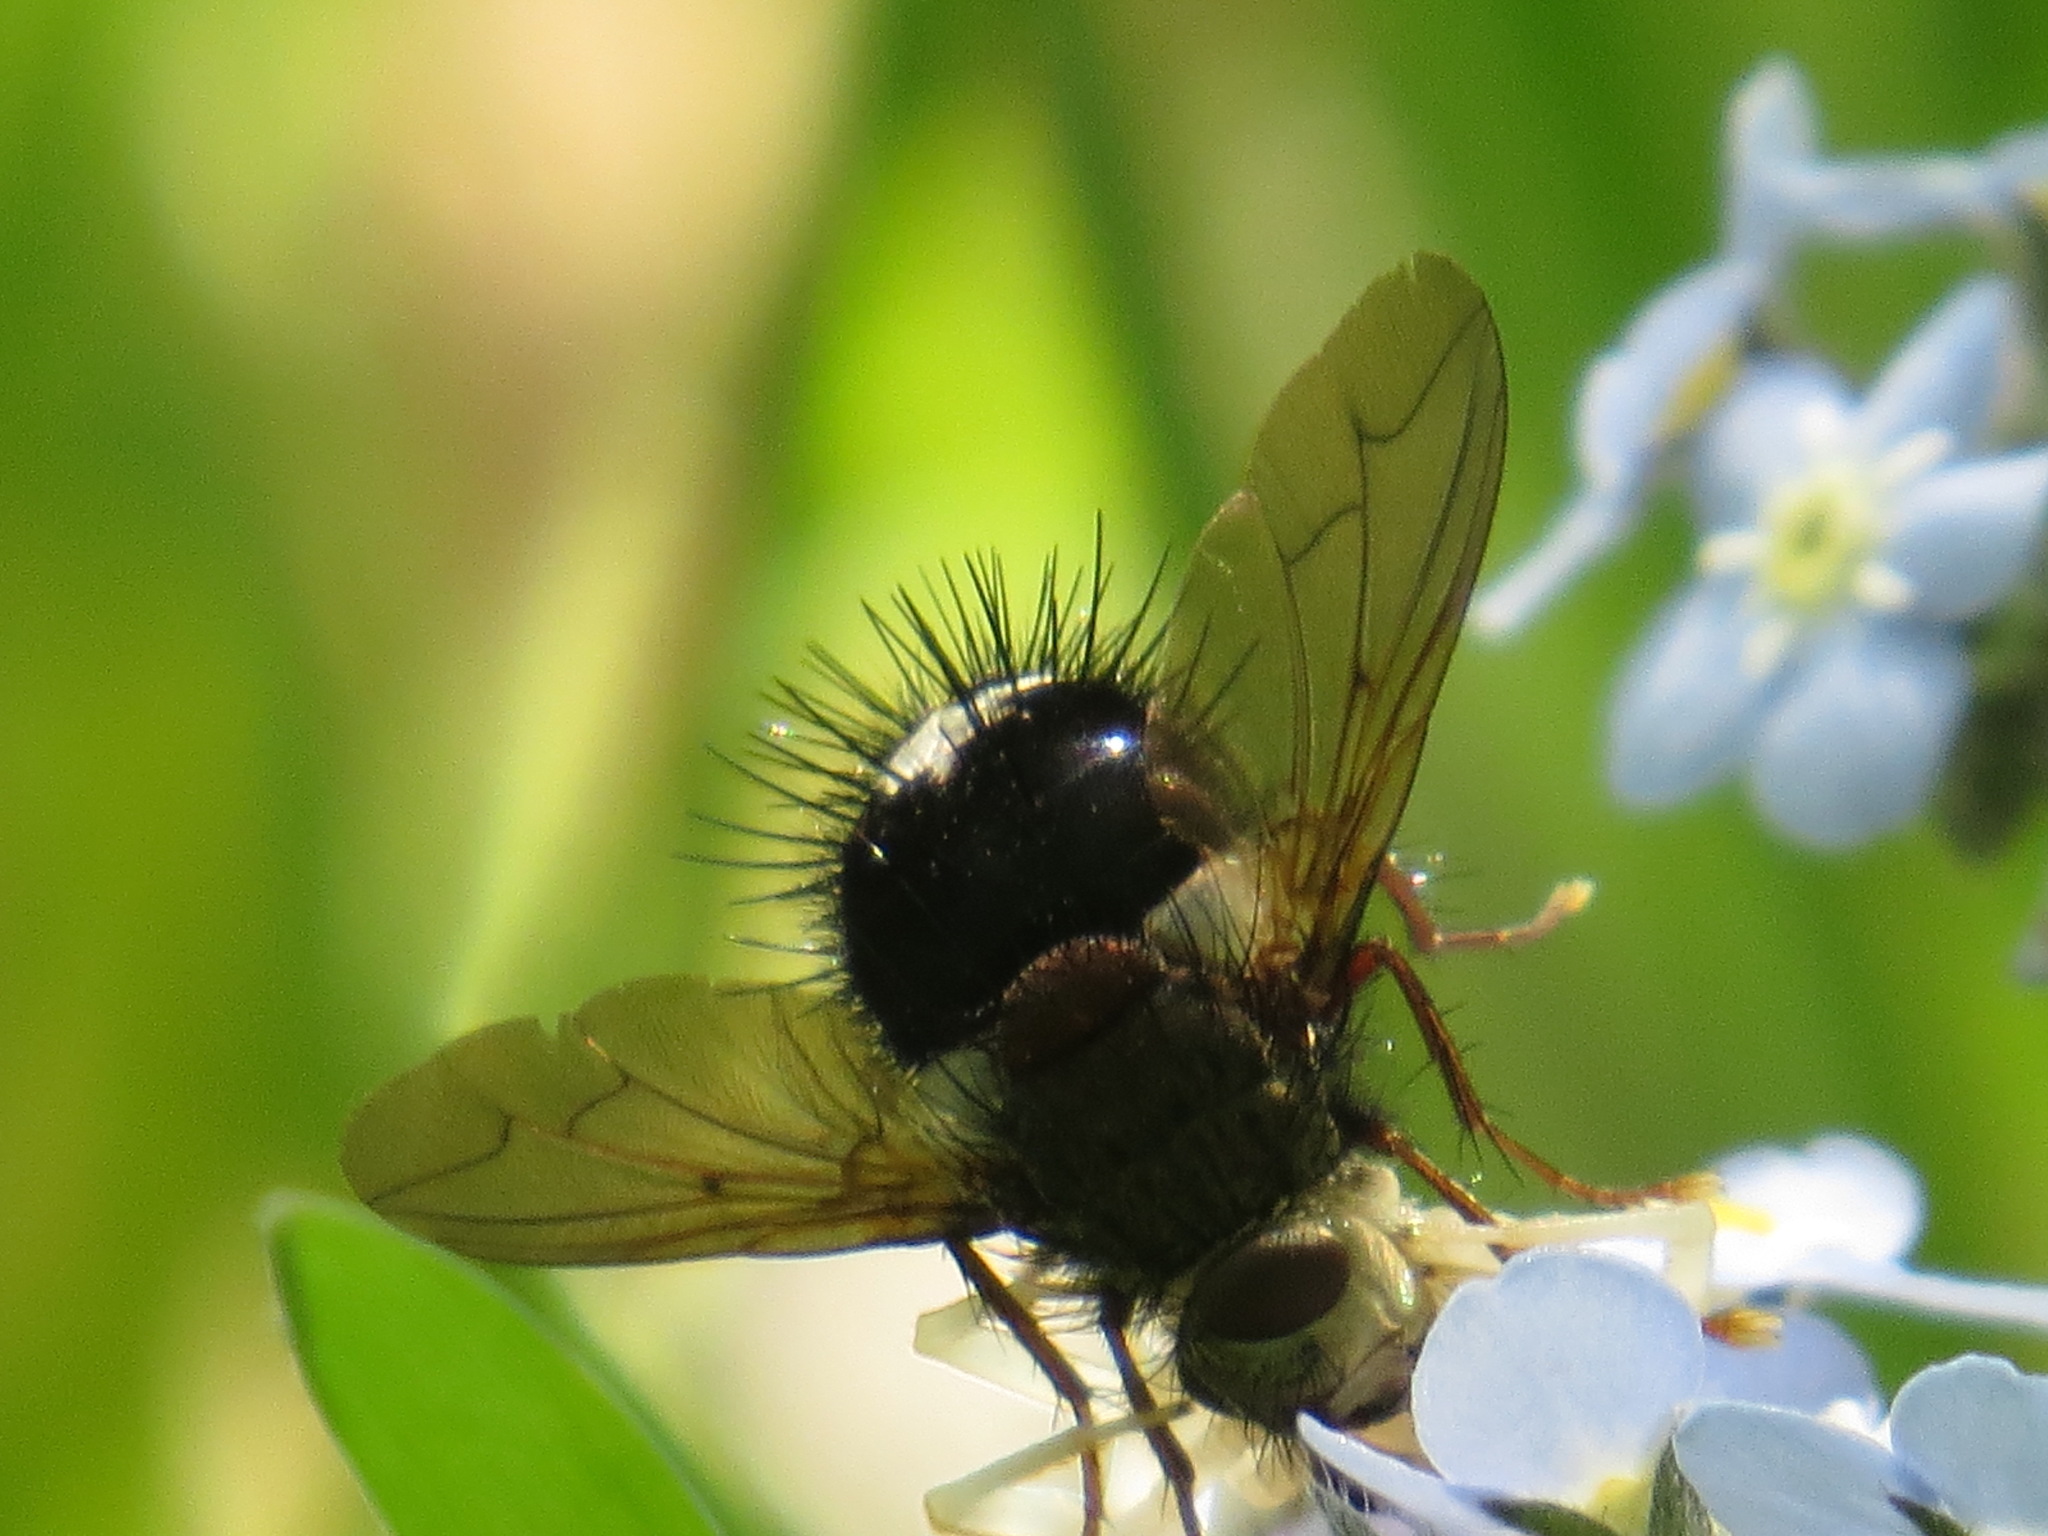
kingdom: Animalia
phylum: Arthropoda
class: Insecta
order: Diptera
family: Tachinidae
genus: Epalpus
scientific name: Epalpus signifer
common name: Early tachinid fly
